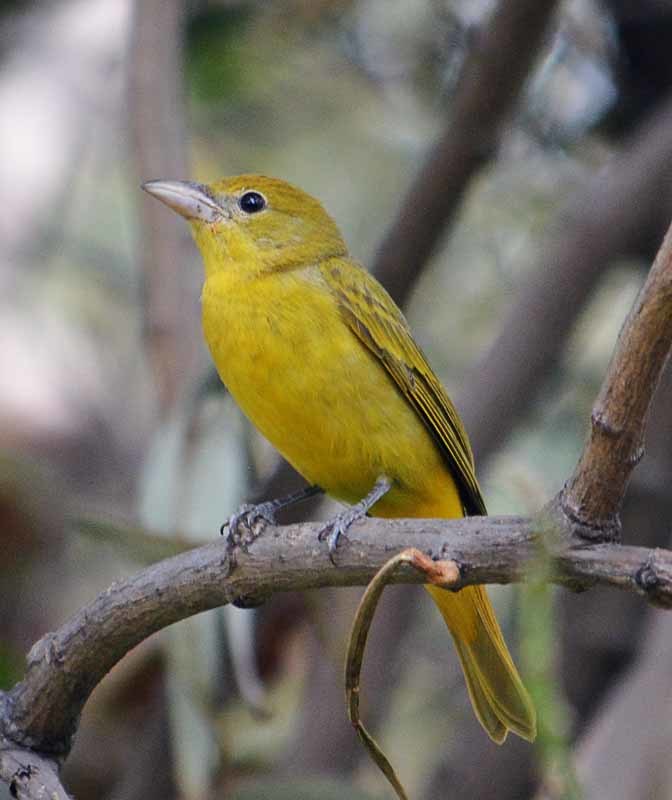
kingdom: Animalia
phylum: Chordata
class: Aves
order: Passeriformes
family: Cardinalidae
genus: Piranga
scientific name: Piranga rubra
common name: Summer tanager
